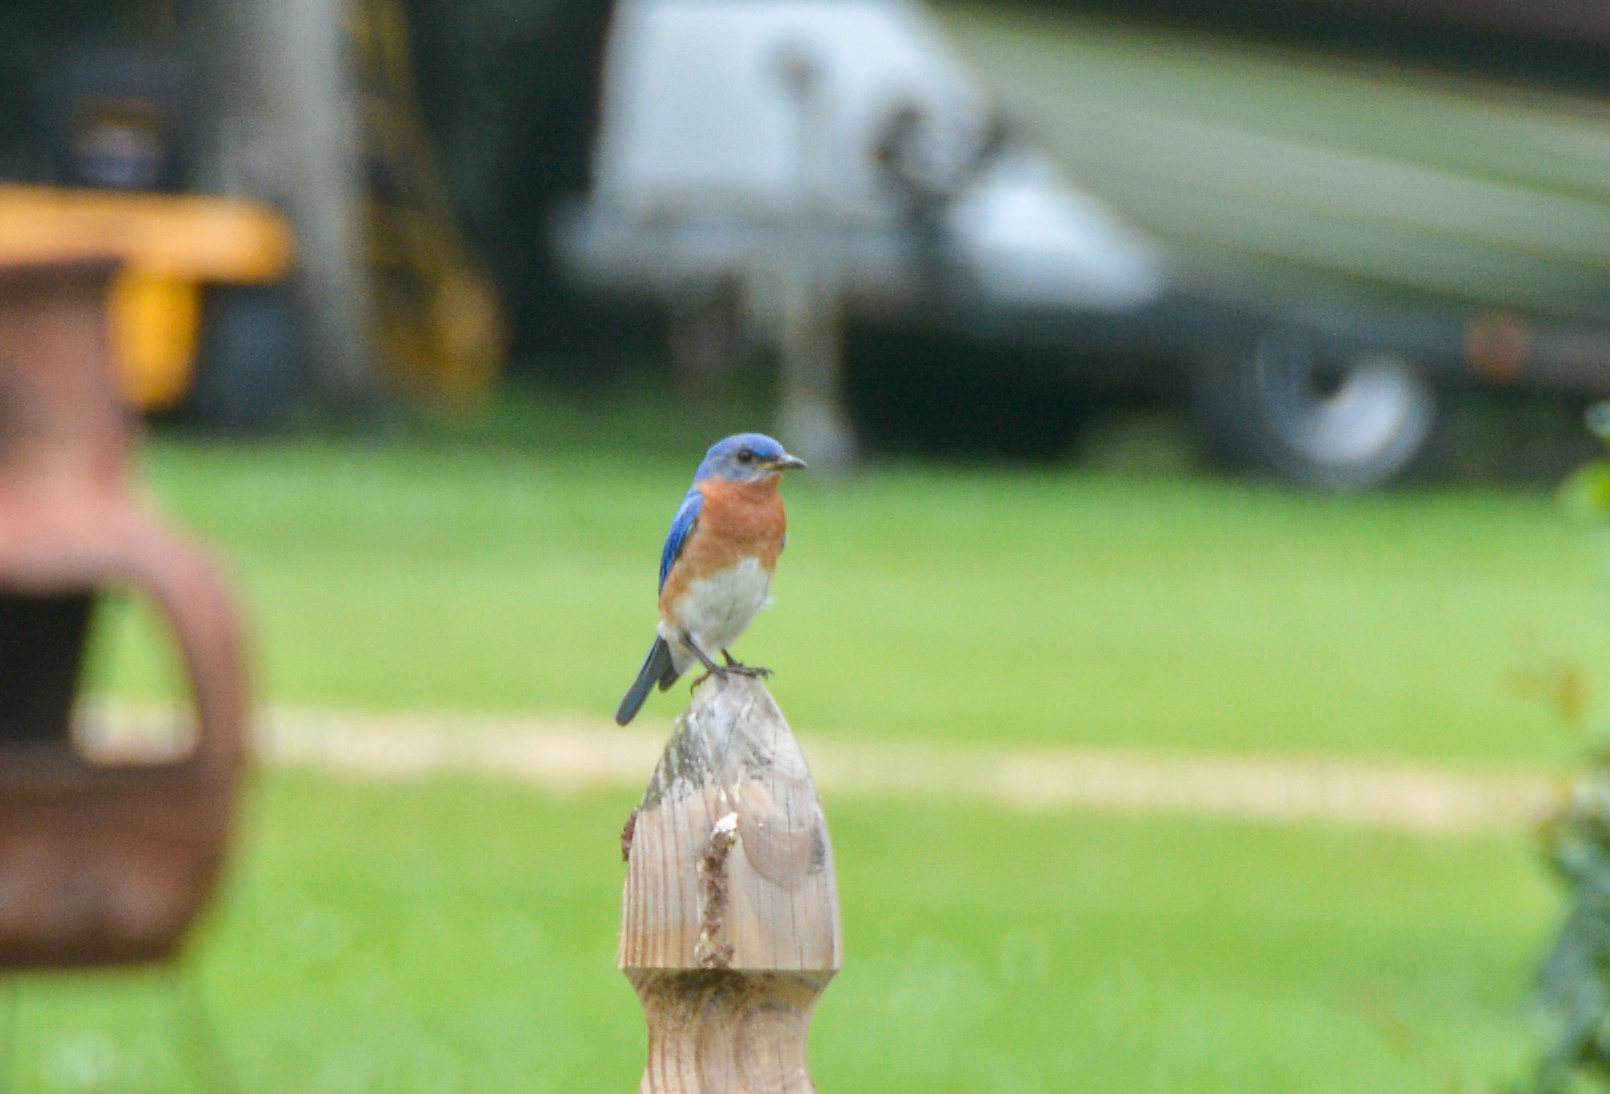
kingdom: Animalia
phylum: Chordata
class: Aves
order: Passeriformes
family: Turdidae
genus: Sialia
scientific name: Sialia sialis
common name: Eastern bluebird
